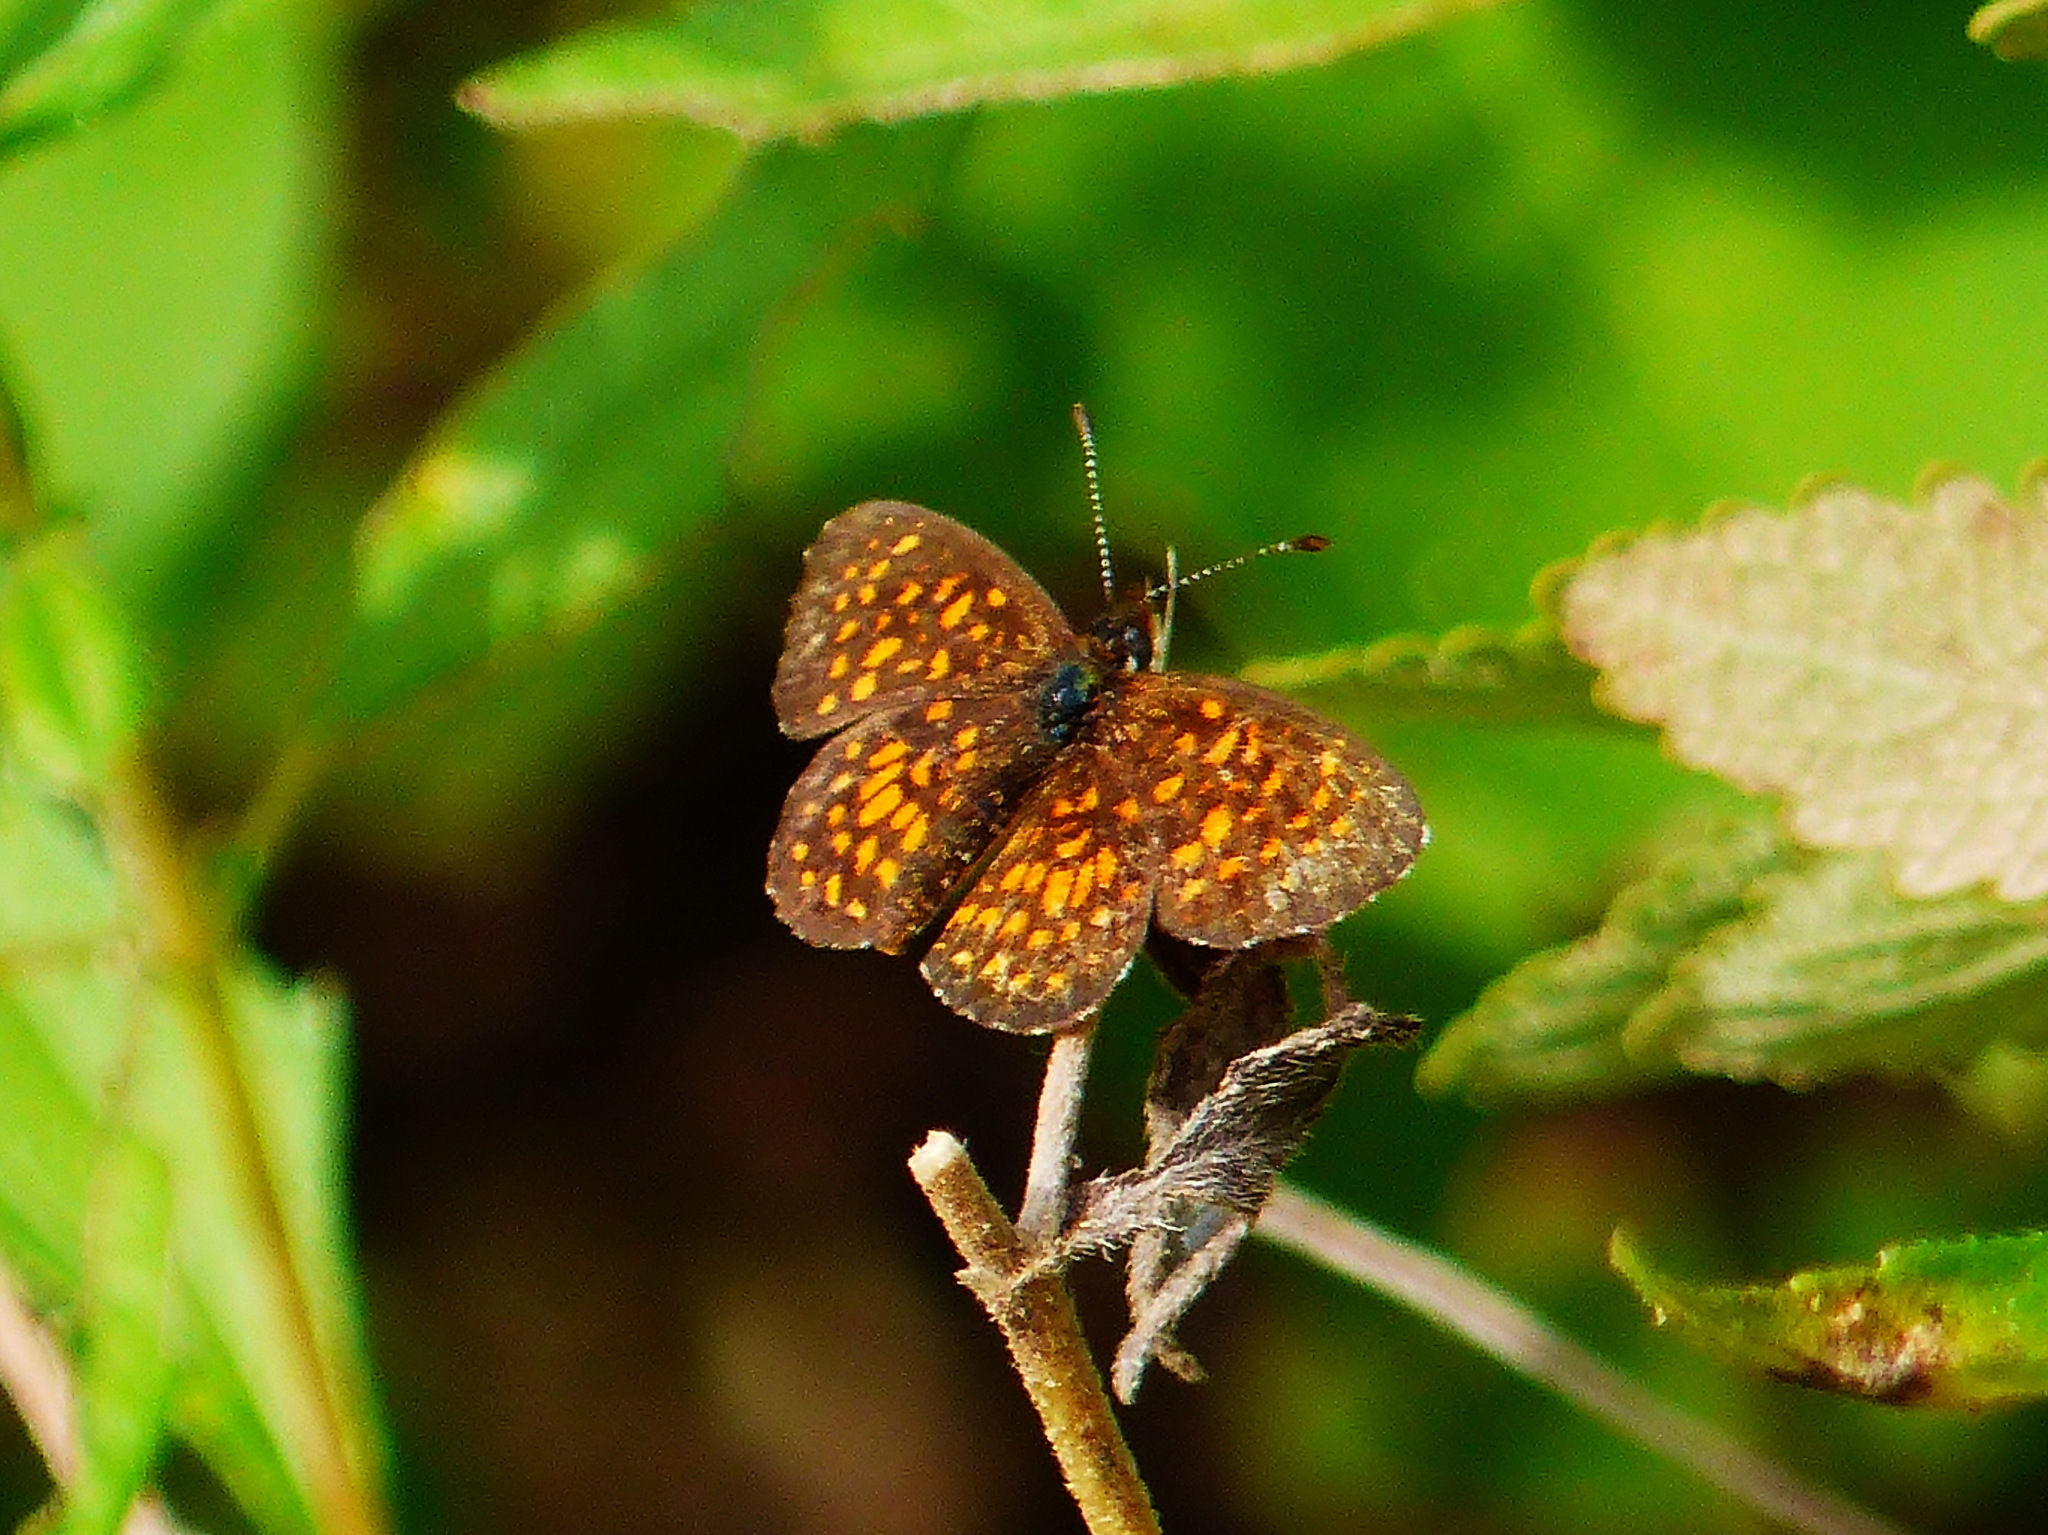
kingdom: Animalia
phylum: Arthropoda
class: Insecta
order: Lepidoptera
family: Nymphalidae
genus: Texola
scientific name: Texola elada
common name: Elada checkerspot
